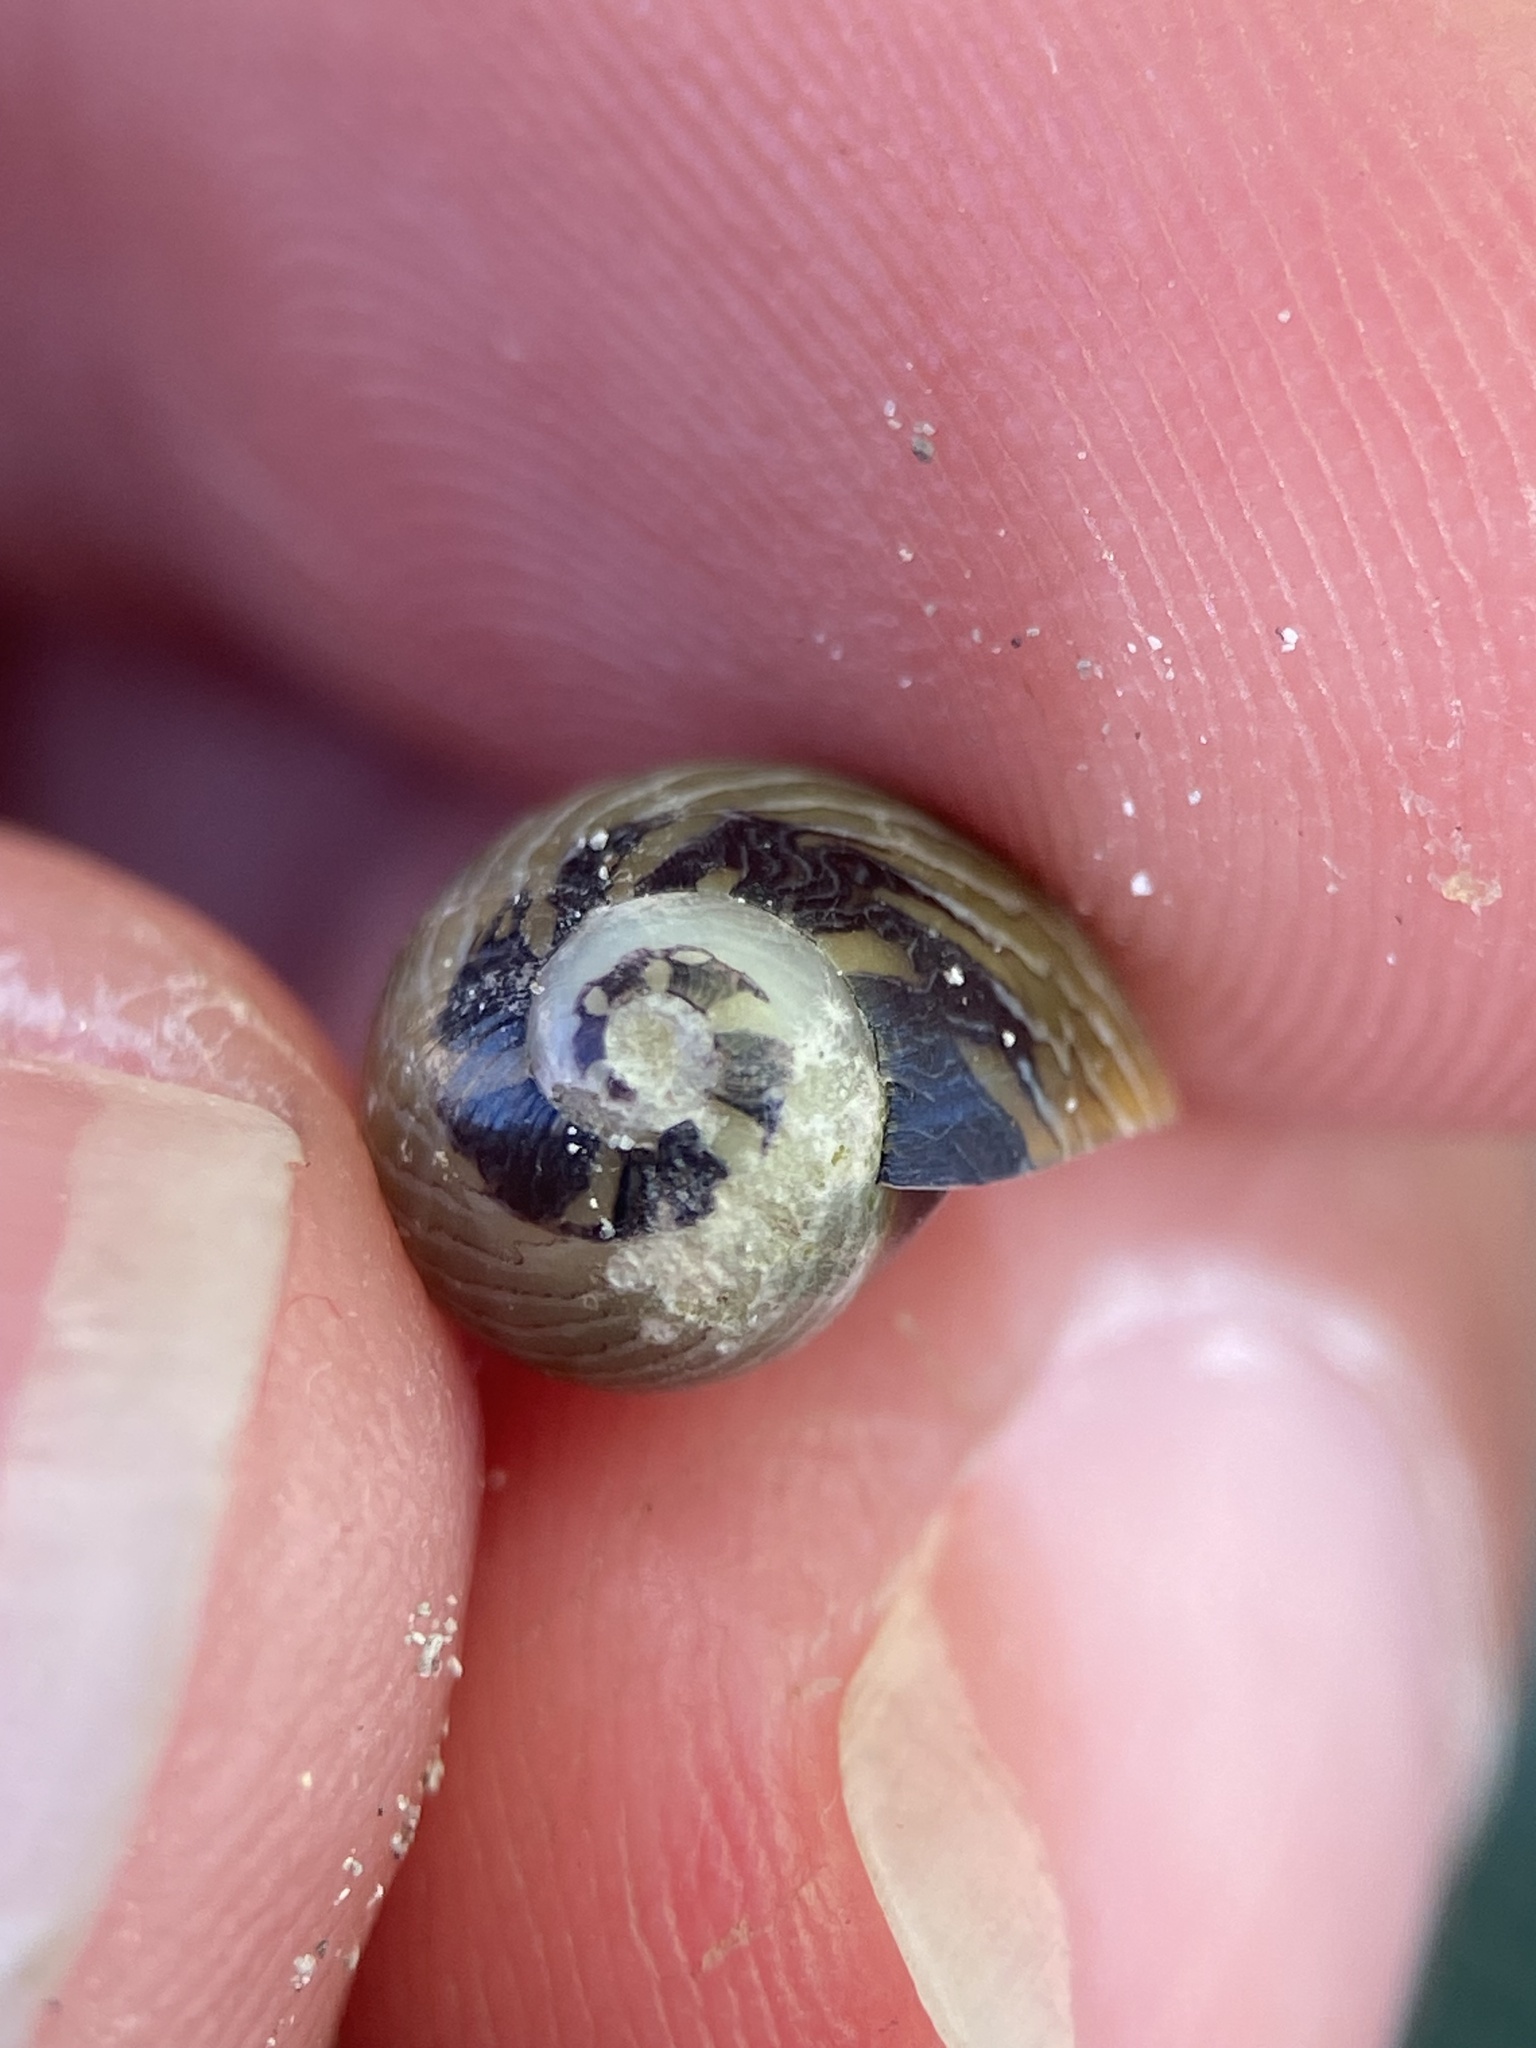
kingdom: Animalia
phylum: Mollusca
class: Gastropoda
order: Cycloneritida
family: Neritidae
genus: Vitta
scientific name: Vitta luteofasciata
